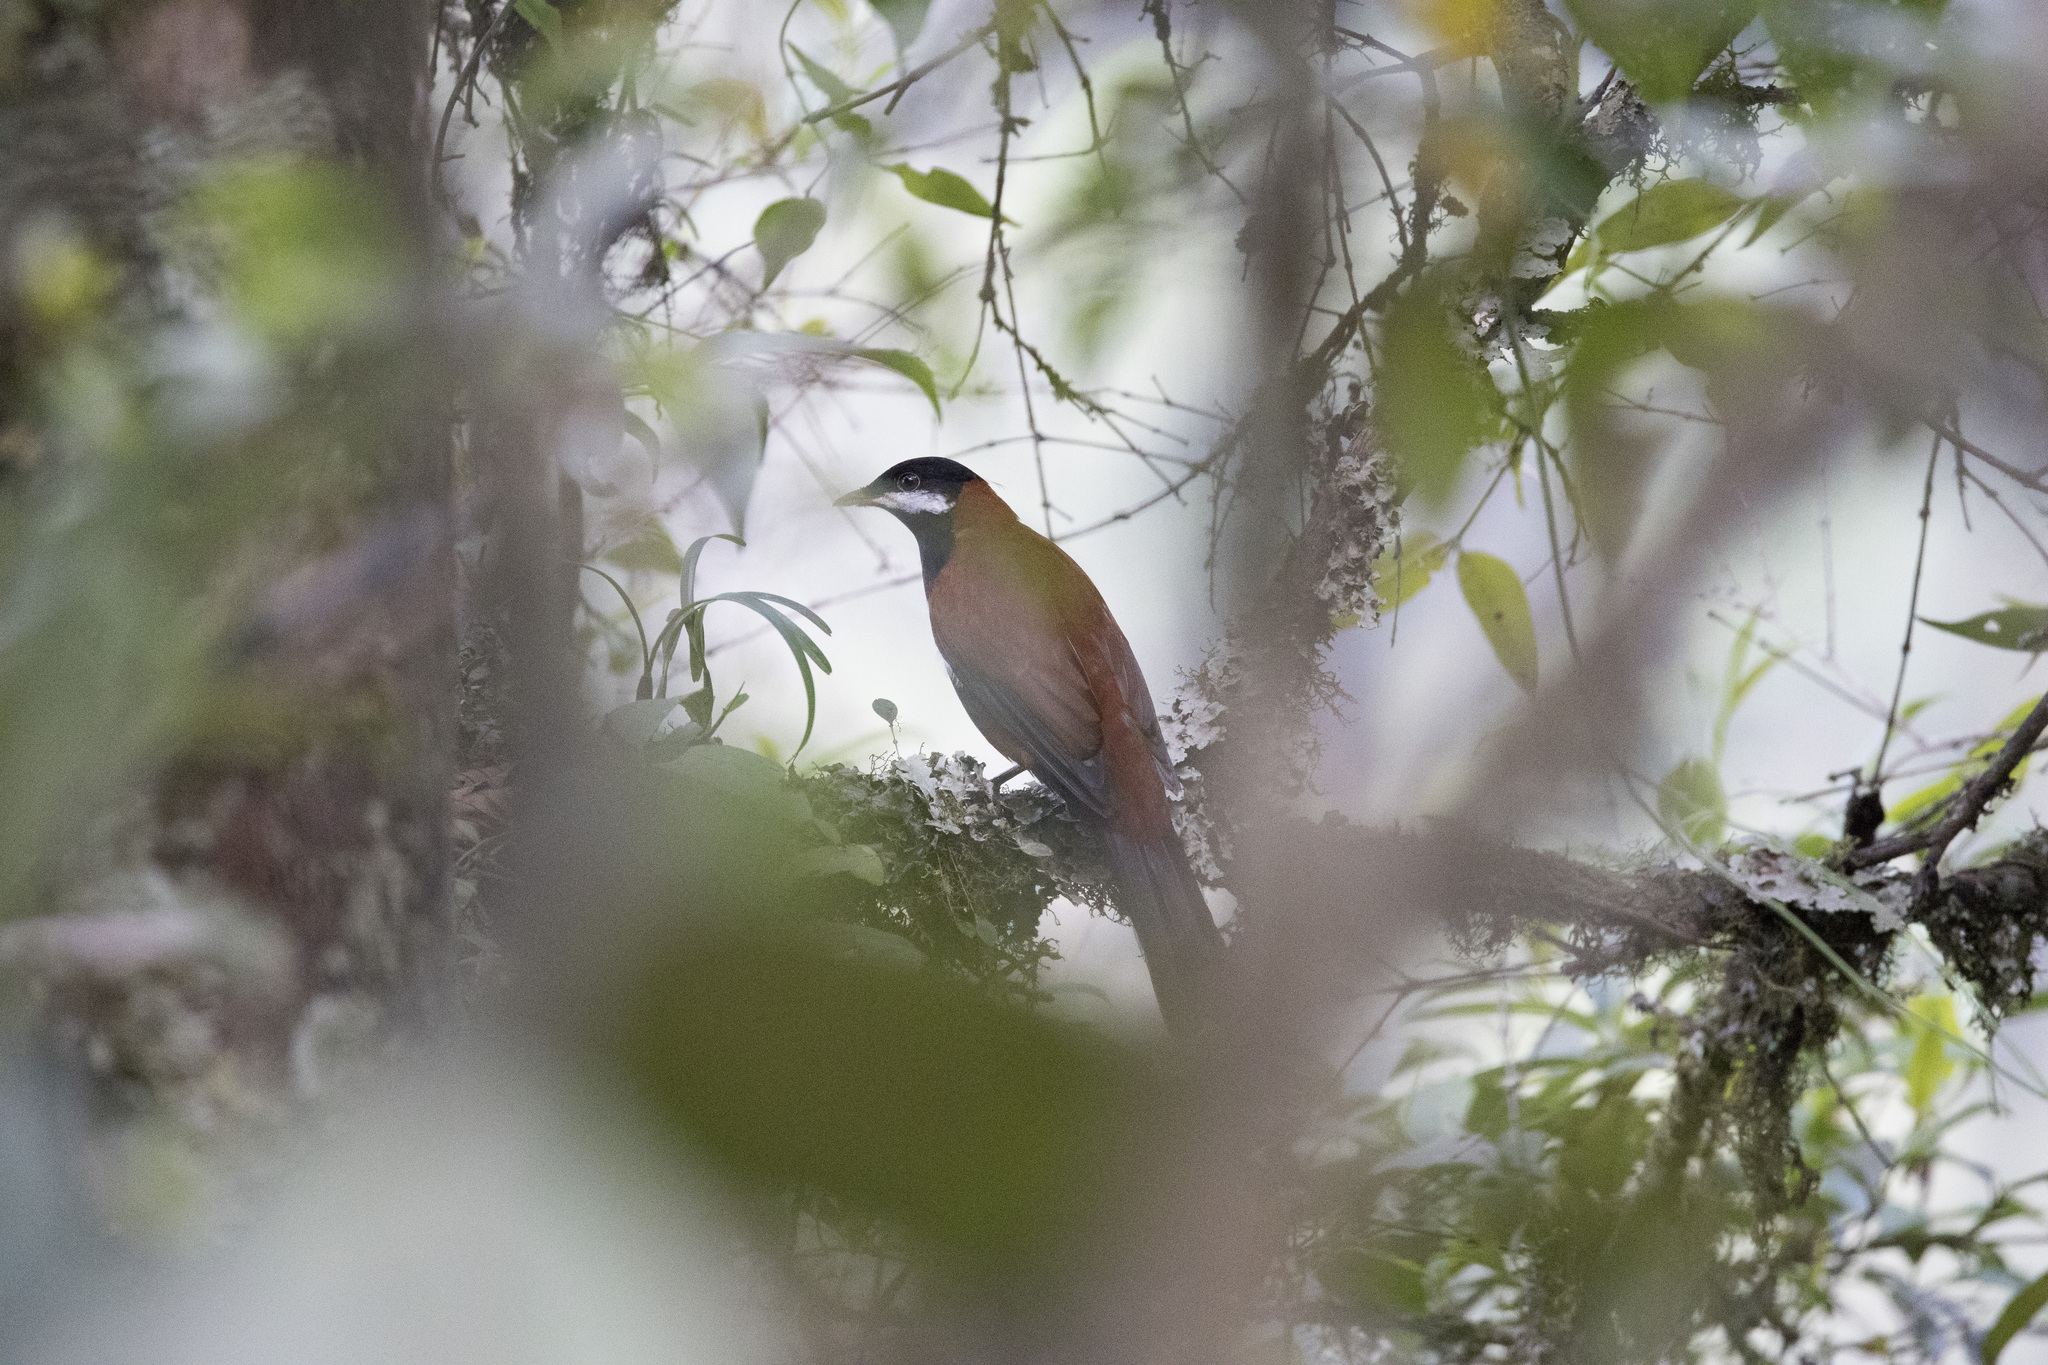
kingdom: Animalia
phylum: Chordata
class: Aves
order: Passeriformes
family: Turdidae
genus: Entomodestes
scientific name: Entomodestes leucotis
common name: White-eared solitaire
